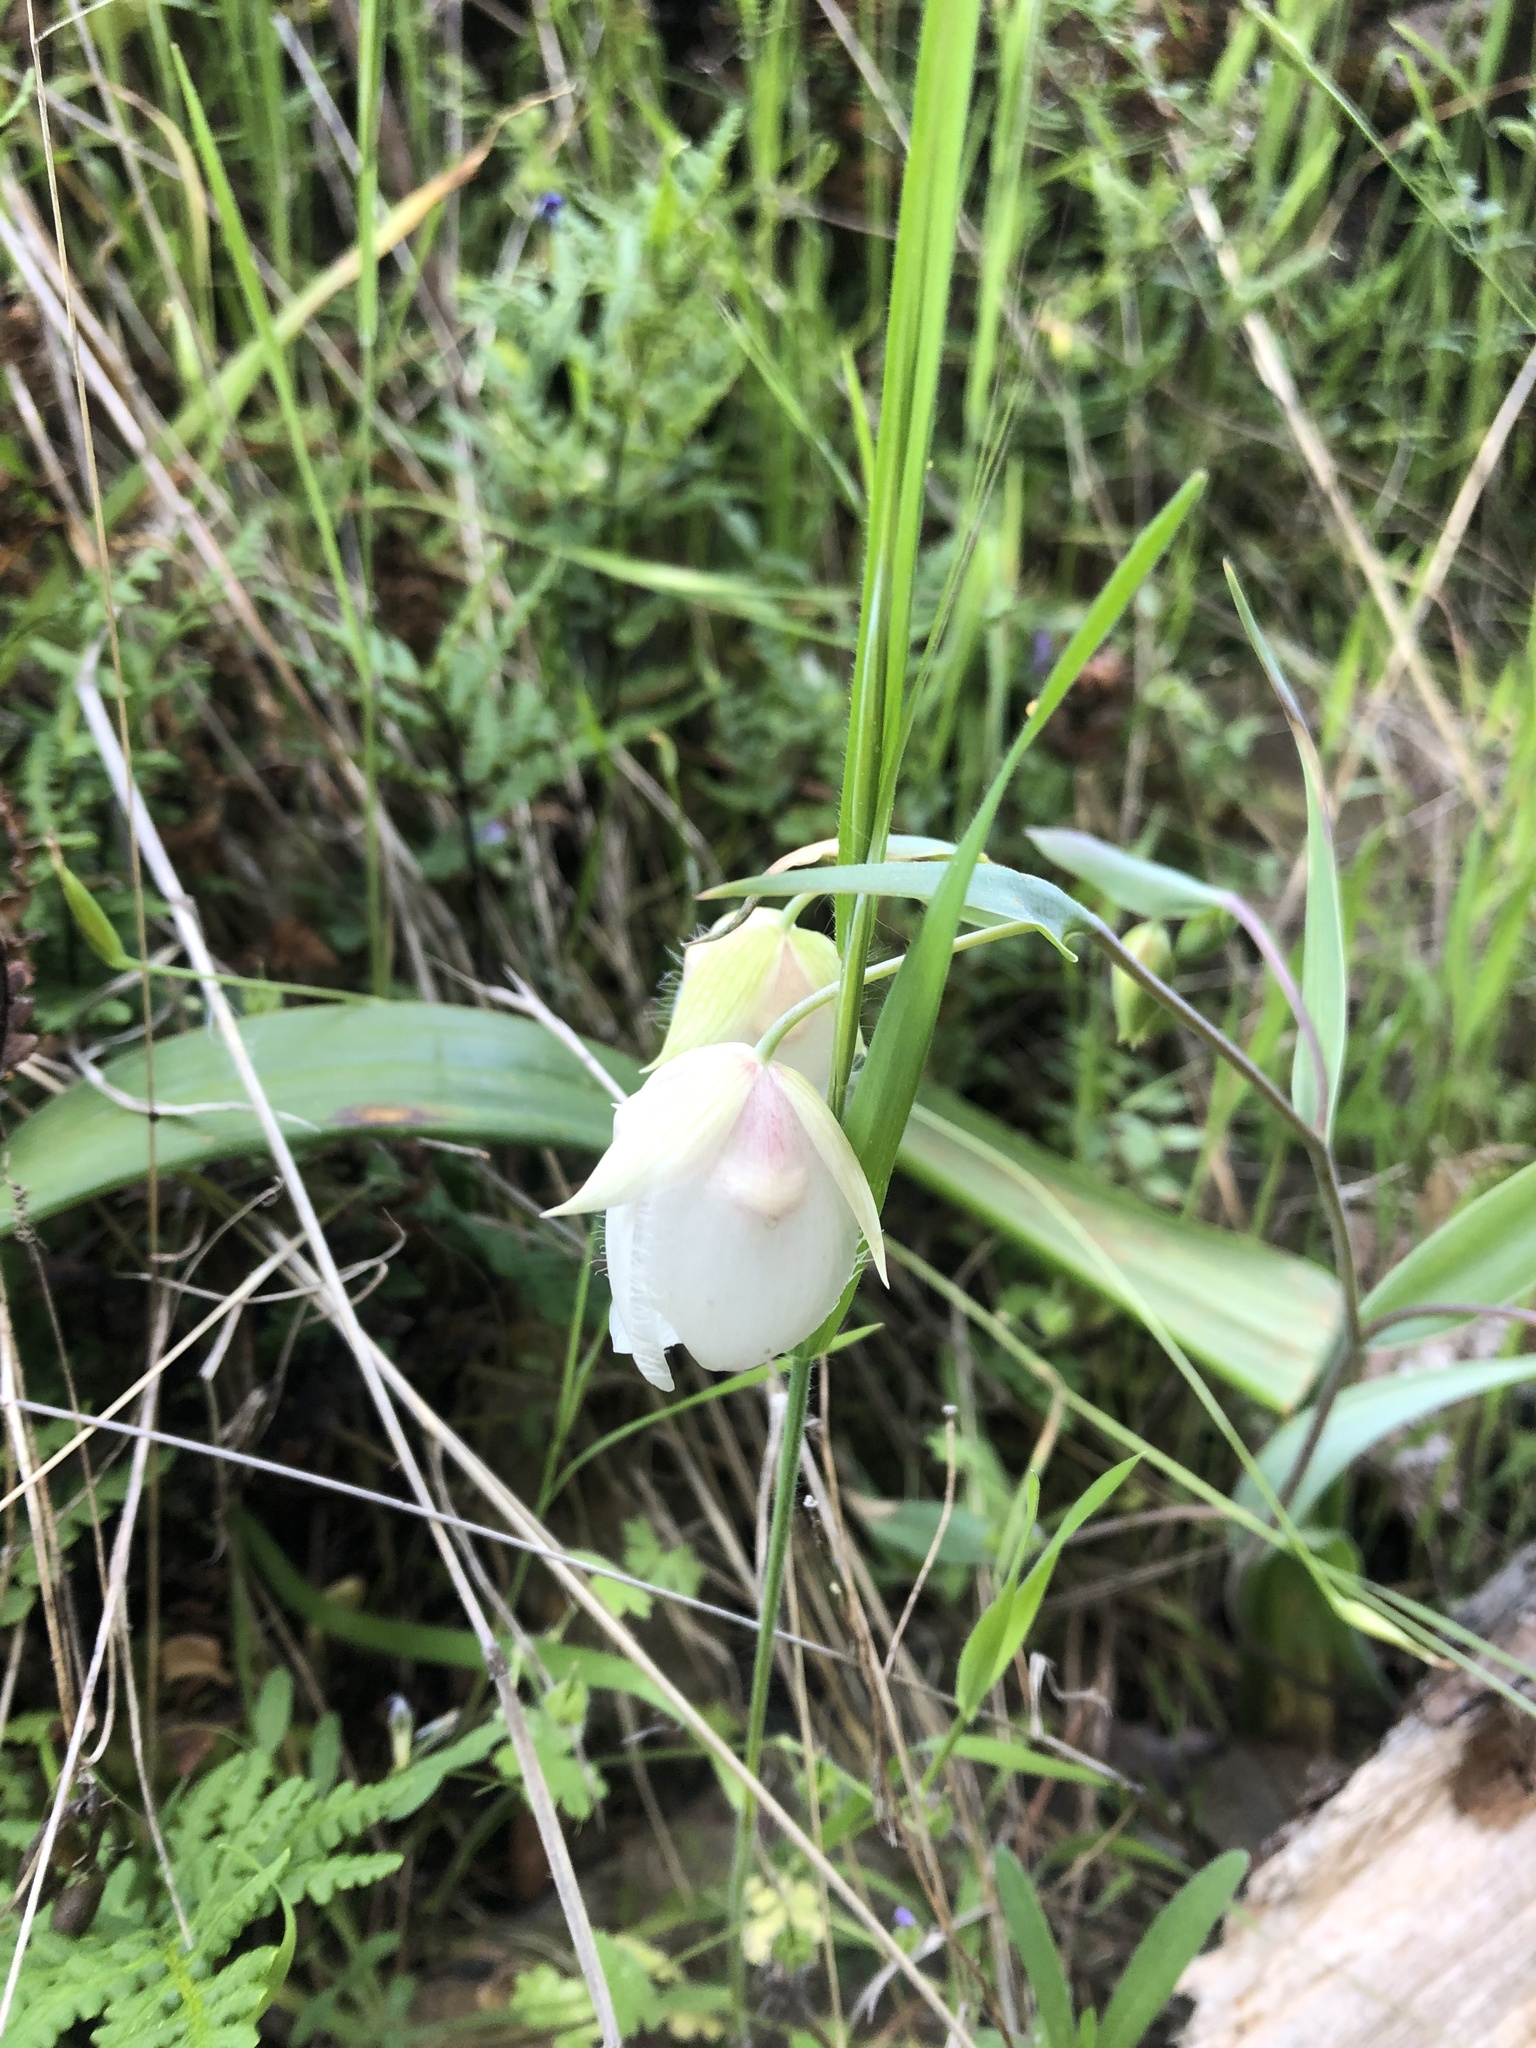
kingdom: Plantae
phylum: Tracheophyta
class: Liliopsida
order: Liliales
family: Liliaceae
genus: Calochortus
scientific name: Calochortus albus
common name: Fairy-lantern
